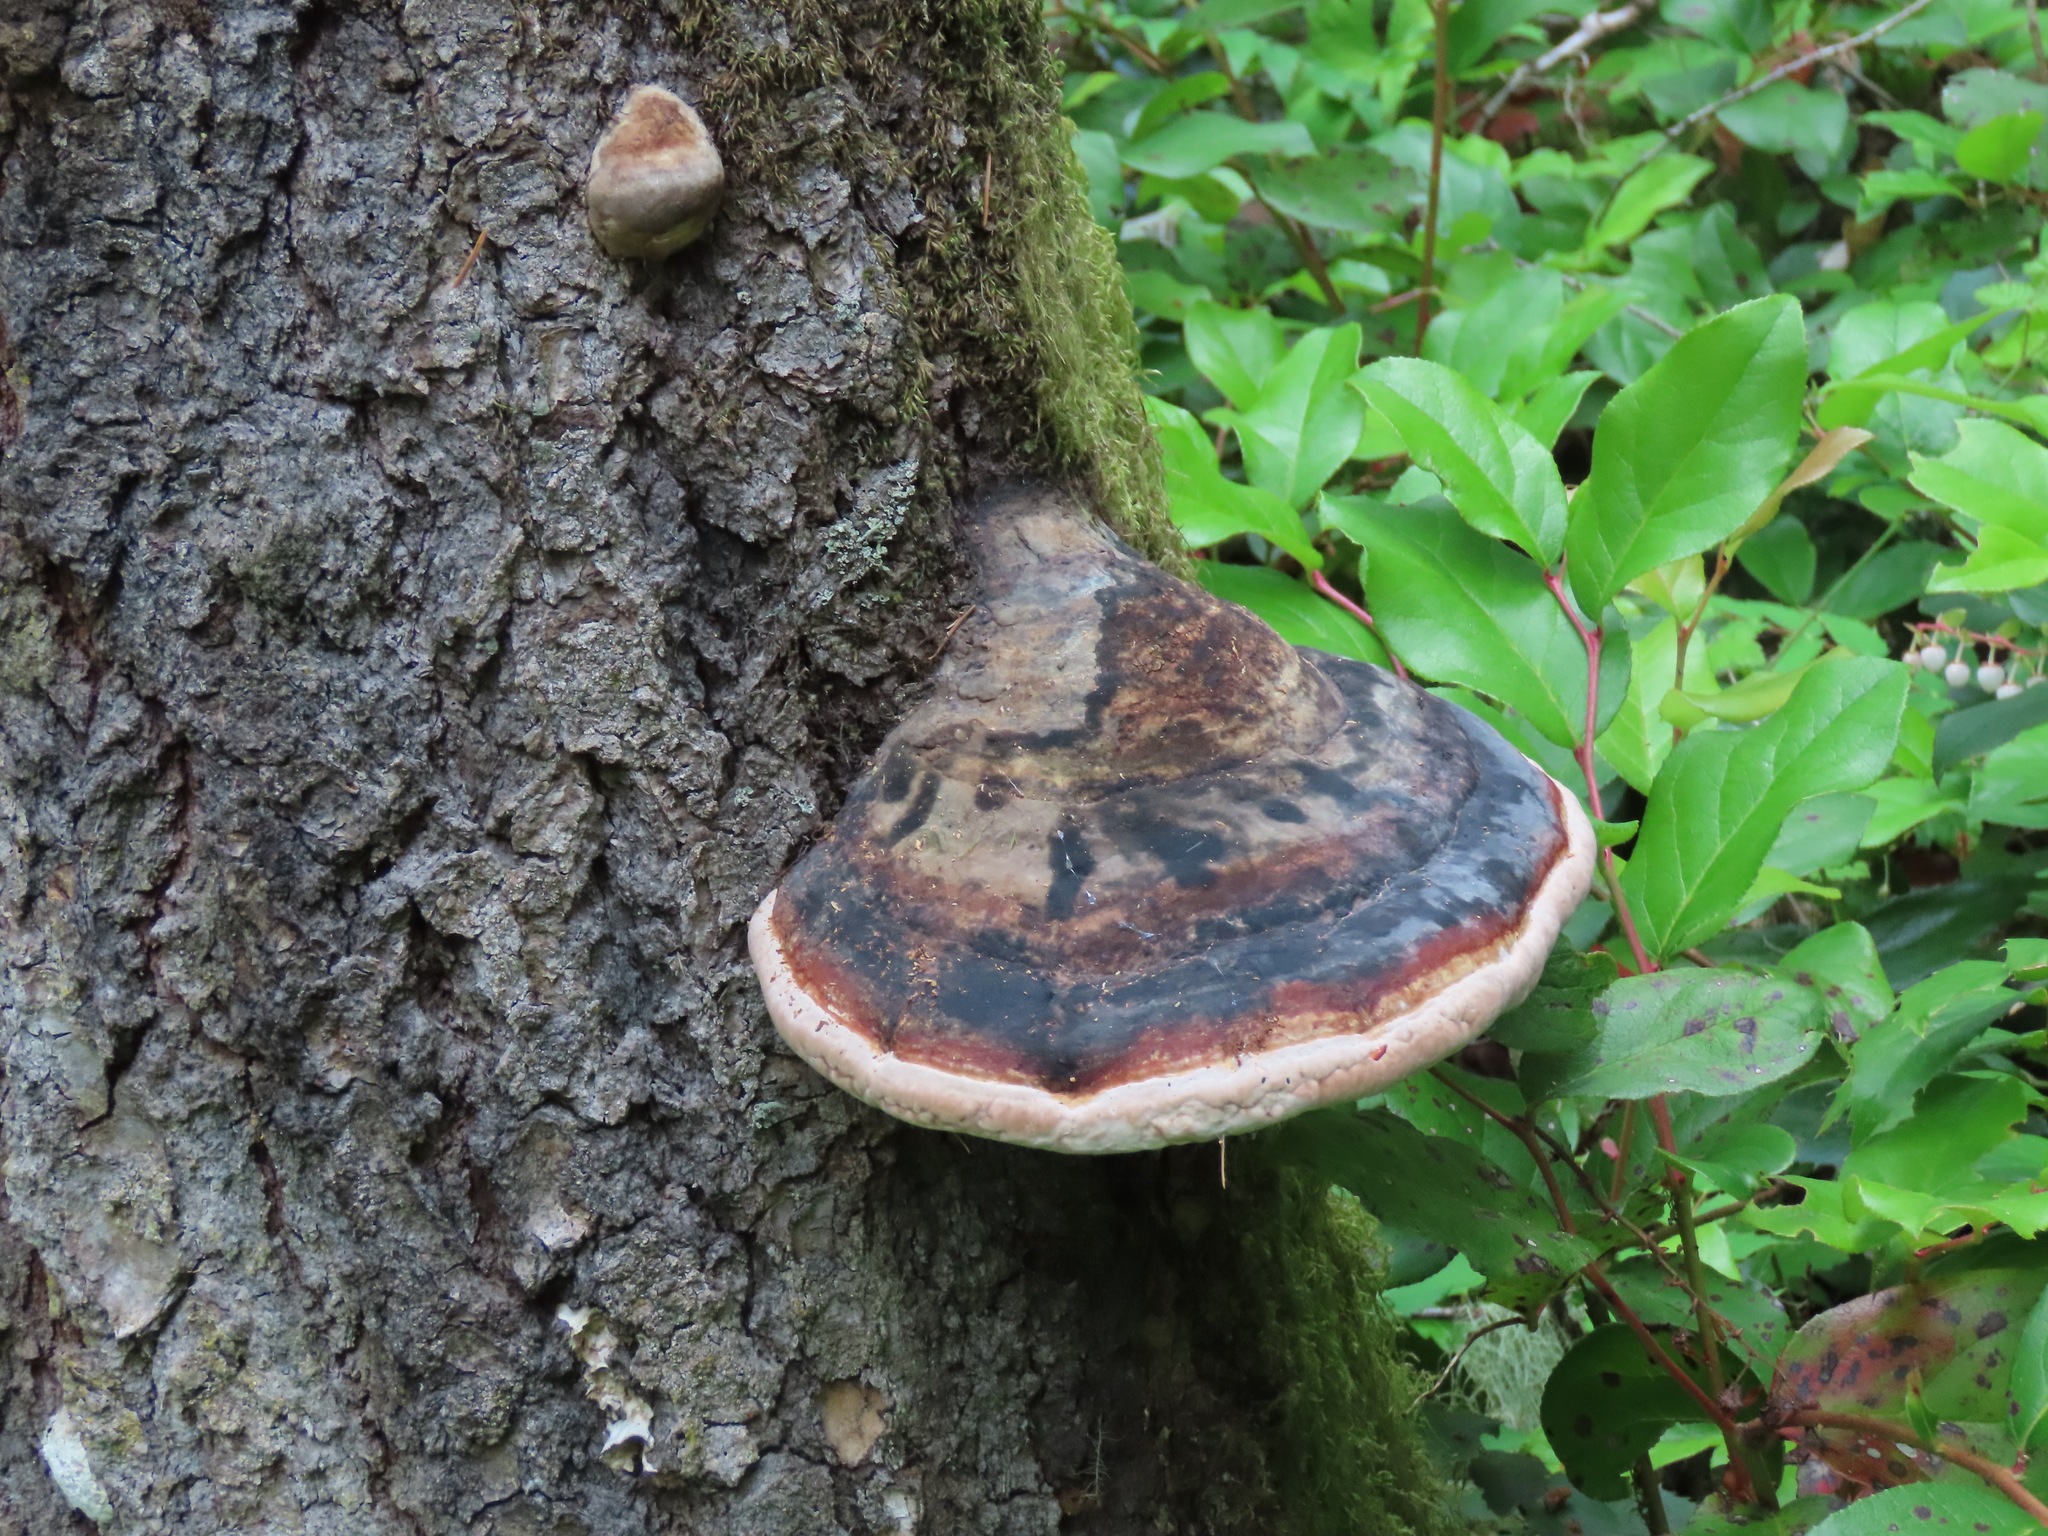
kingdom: Fungi
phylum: Basidiomycota
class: Agaricomycetes
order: Polyporales
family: Fomitopsidaceae
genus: Fomitopsis
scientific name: Fomitopsis mounceae
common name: Northern red belt
